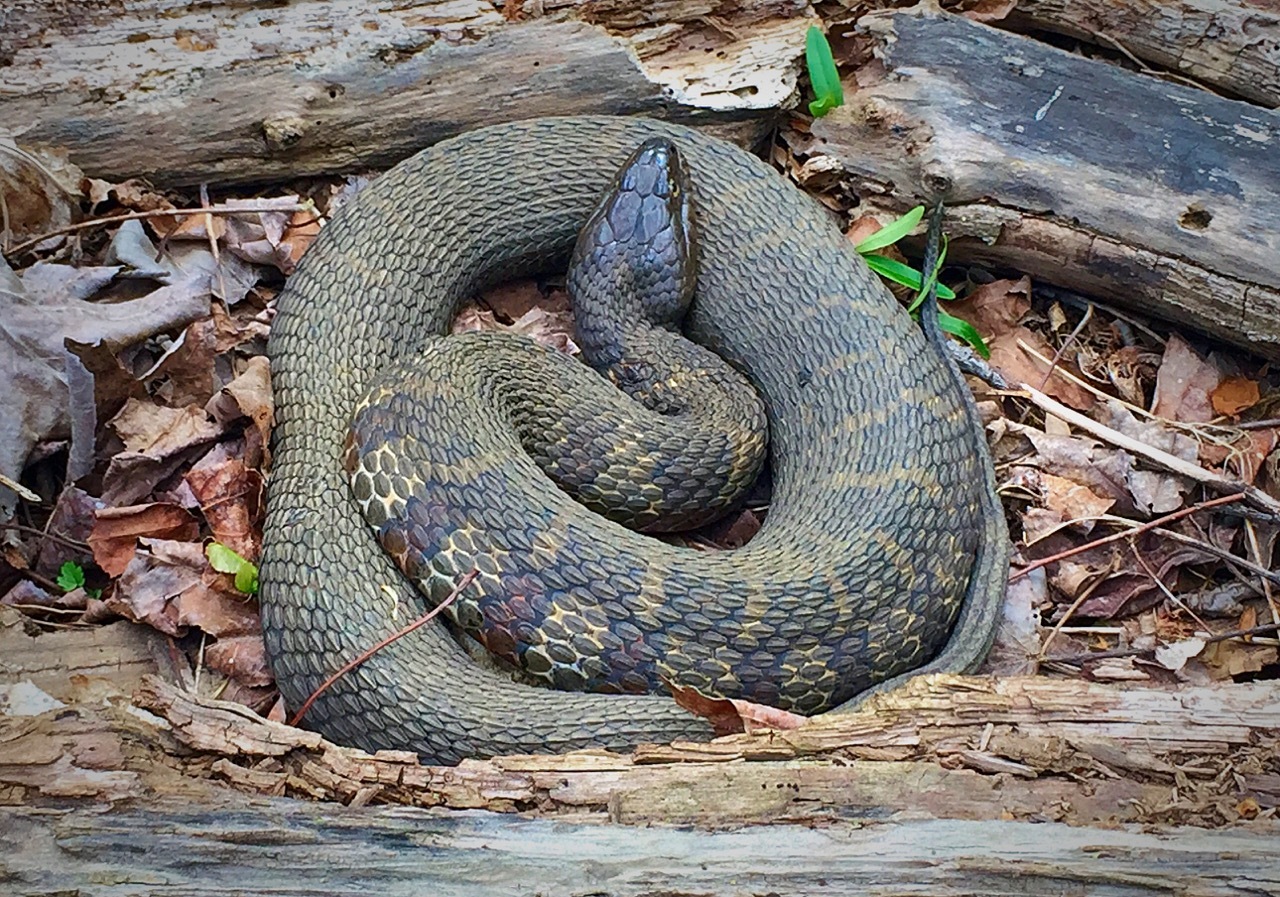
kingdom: Animalia
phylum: Chordata
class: Squamata
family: Colubridae
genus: Nerodia
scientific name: Nerodia sipedon
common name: Northern water snake
